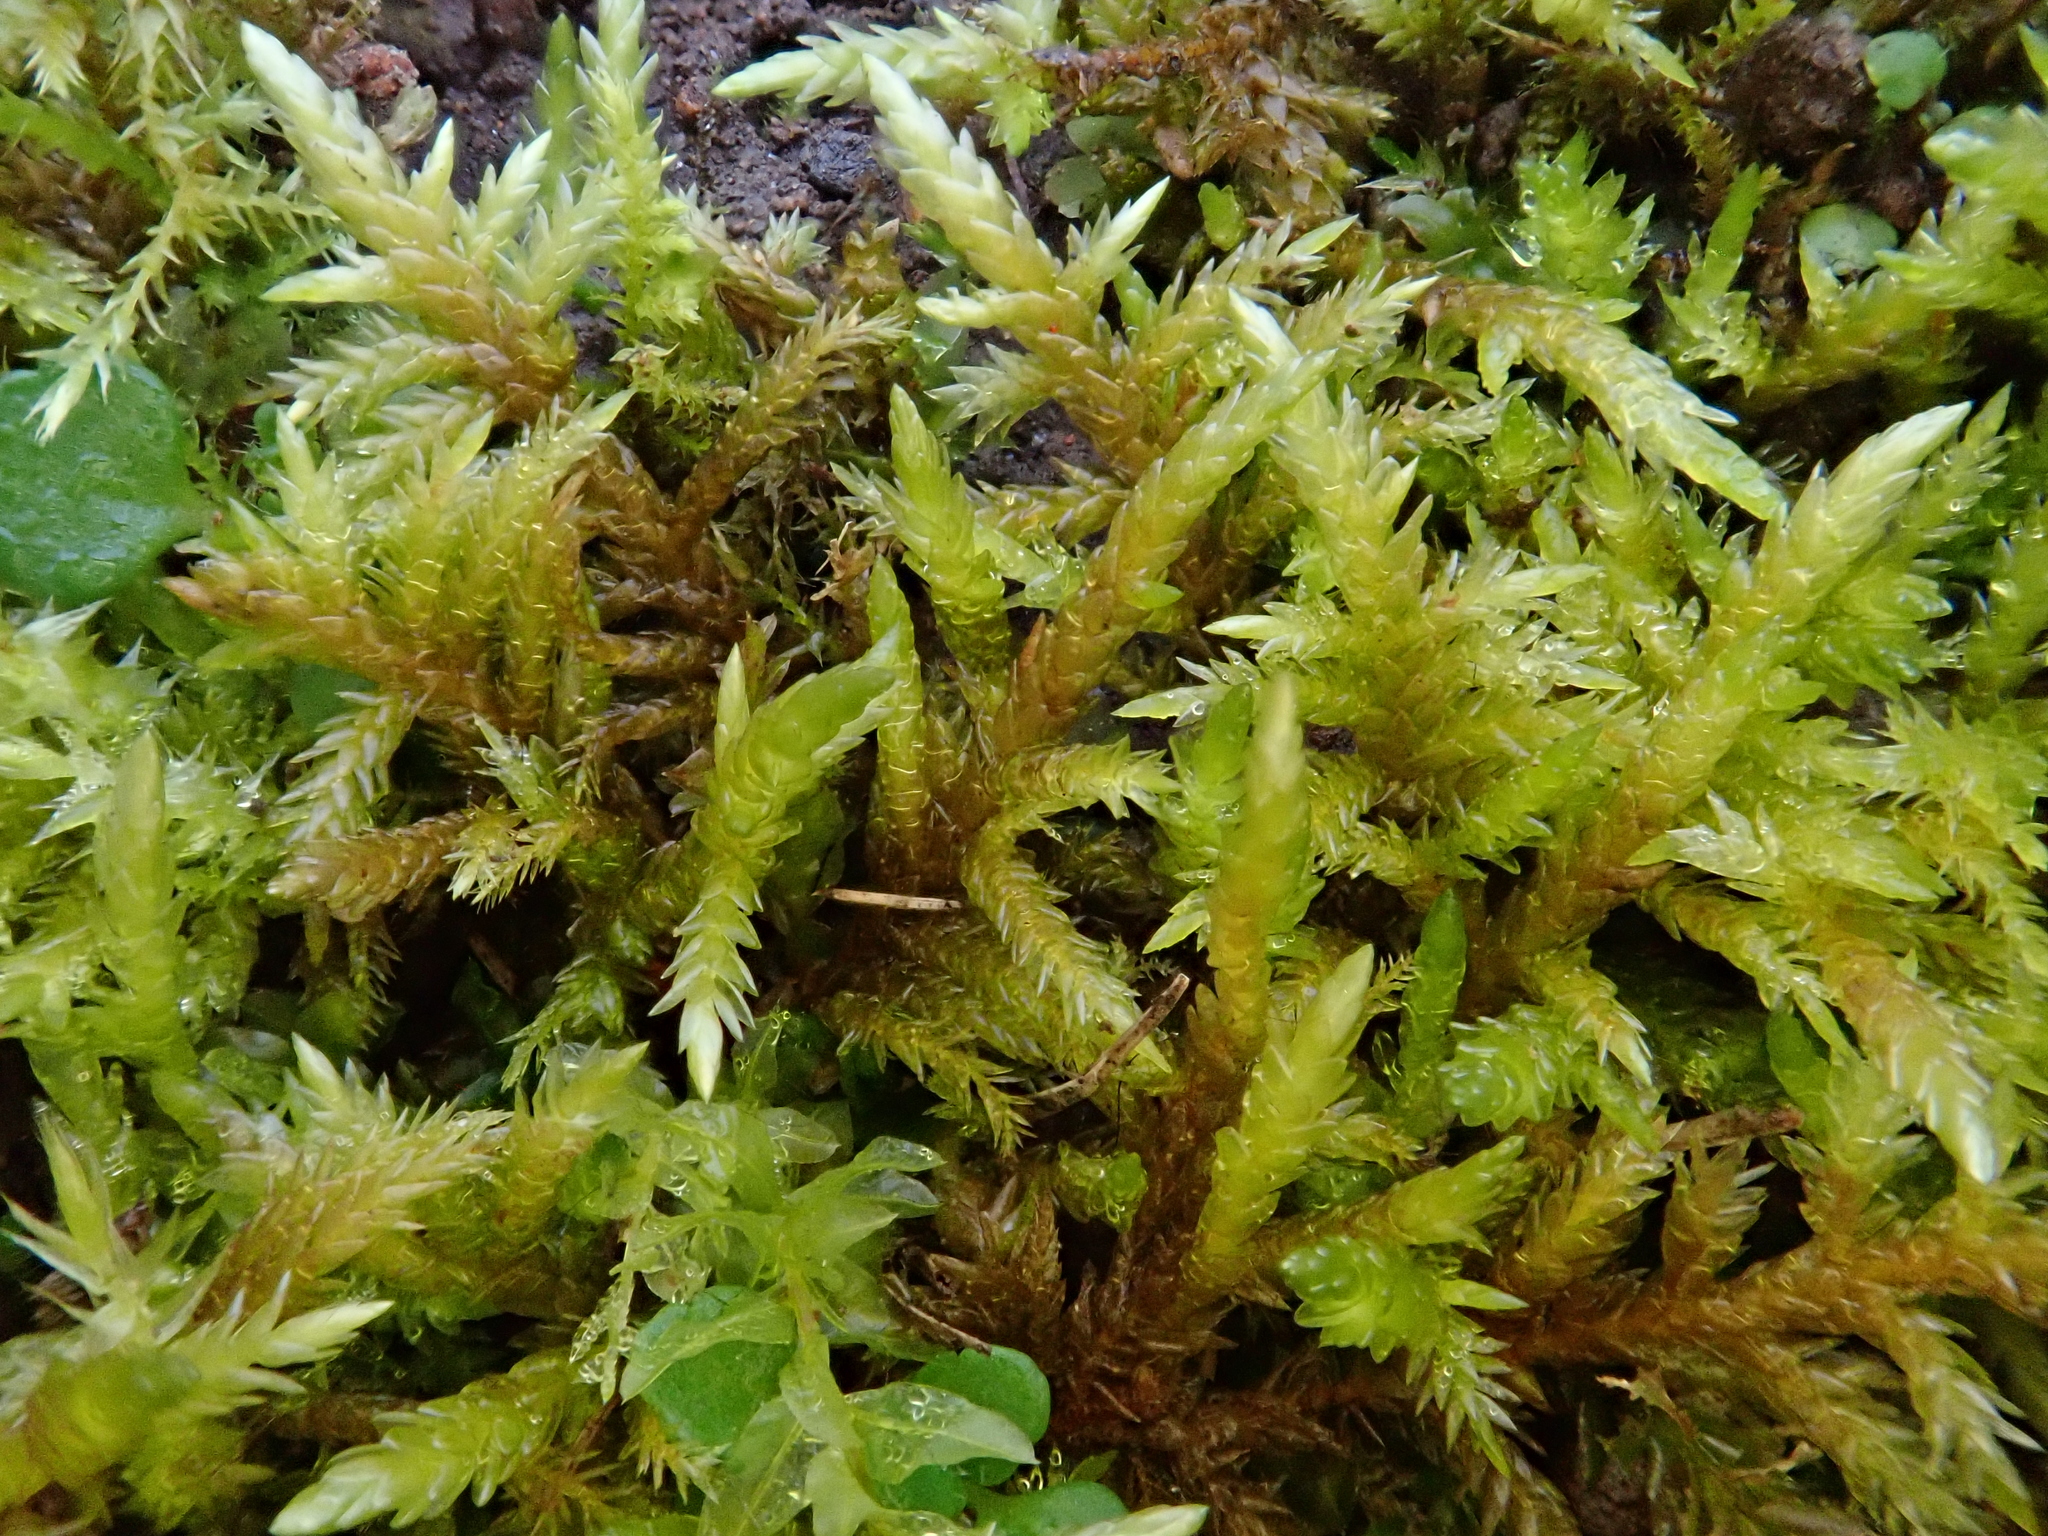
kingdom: Plantae
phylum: Bryophyta
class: Bryopsida
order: Hypnales
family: Entodontaceae
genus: Entodon
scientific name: Entodon concinnus
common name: Montagne's cylinder-moss
